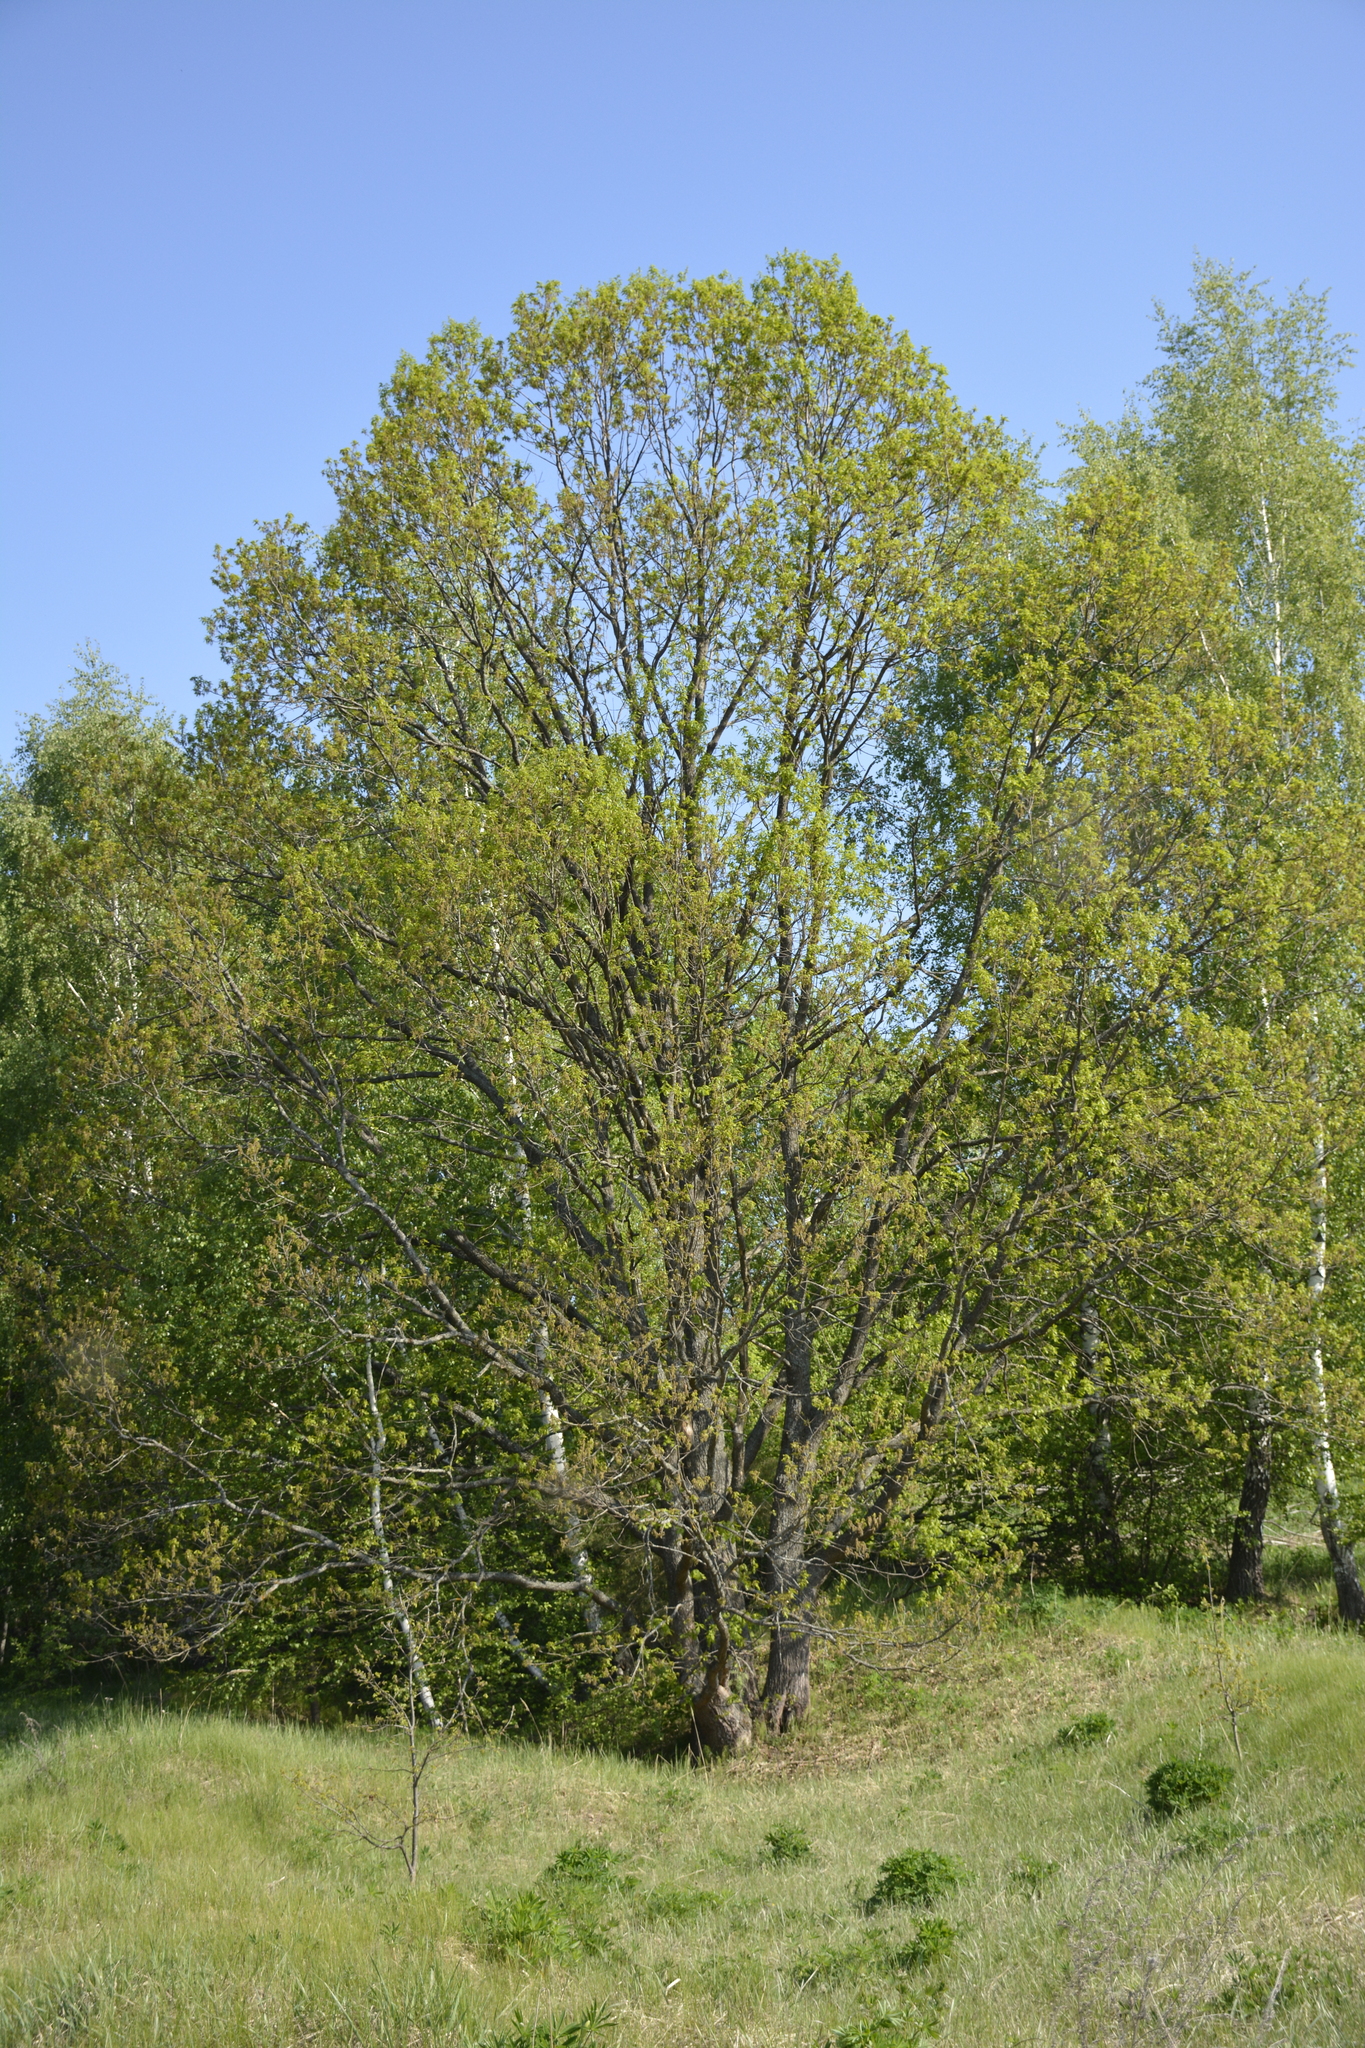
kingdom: Plantae
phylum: Tracheophyta
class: Magnoliopsida
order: Fagales
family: Fagaceae
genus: Quercus
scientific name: Quercus robur
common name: Pedunculate oak
